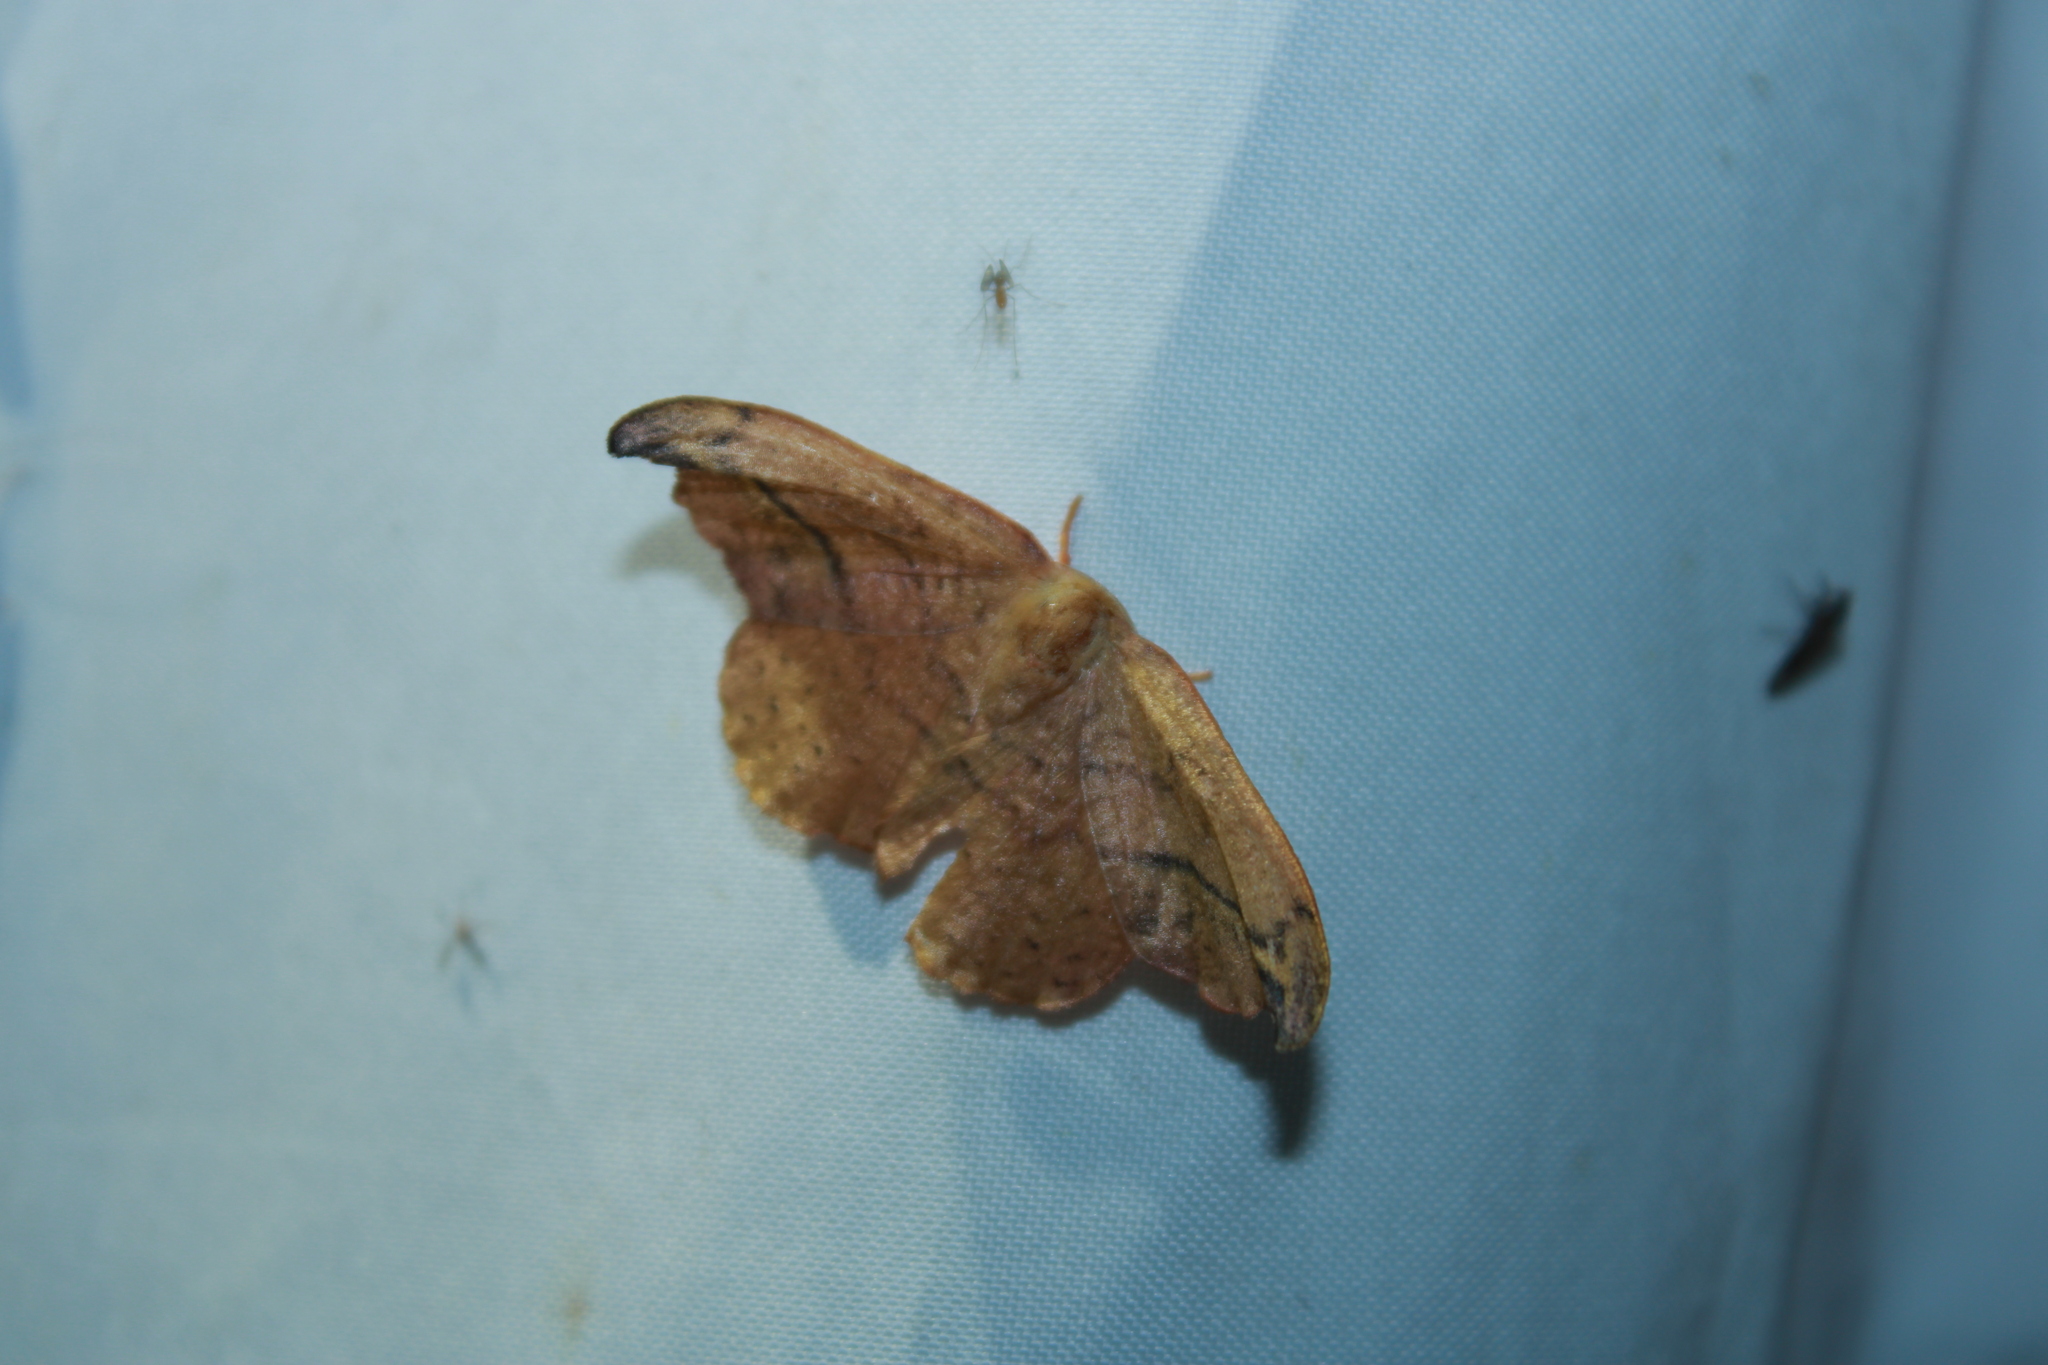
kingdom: Animalia
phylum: Arthropoda
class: Insecta
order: Lepidoptera
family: Drepanidae
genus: Oreta
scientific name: Oreta rosea
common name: Rose hooktip
